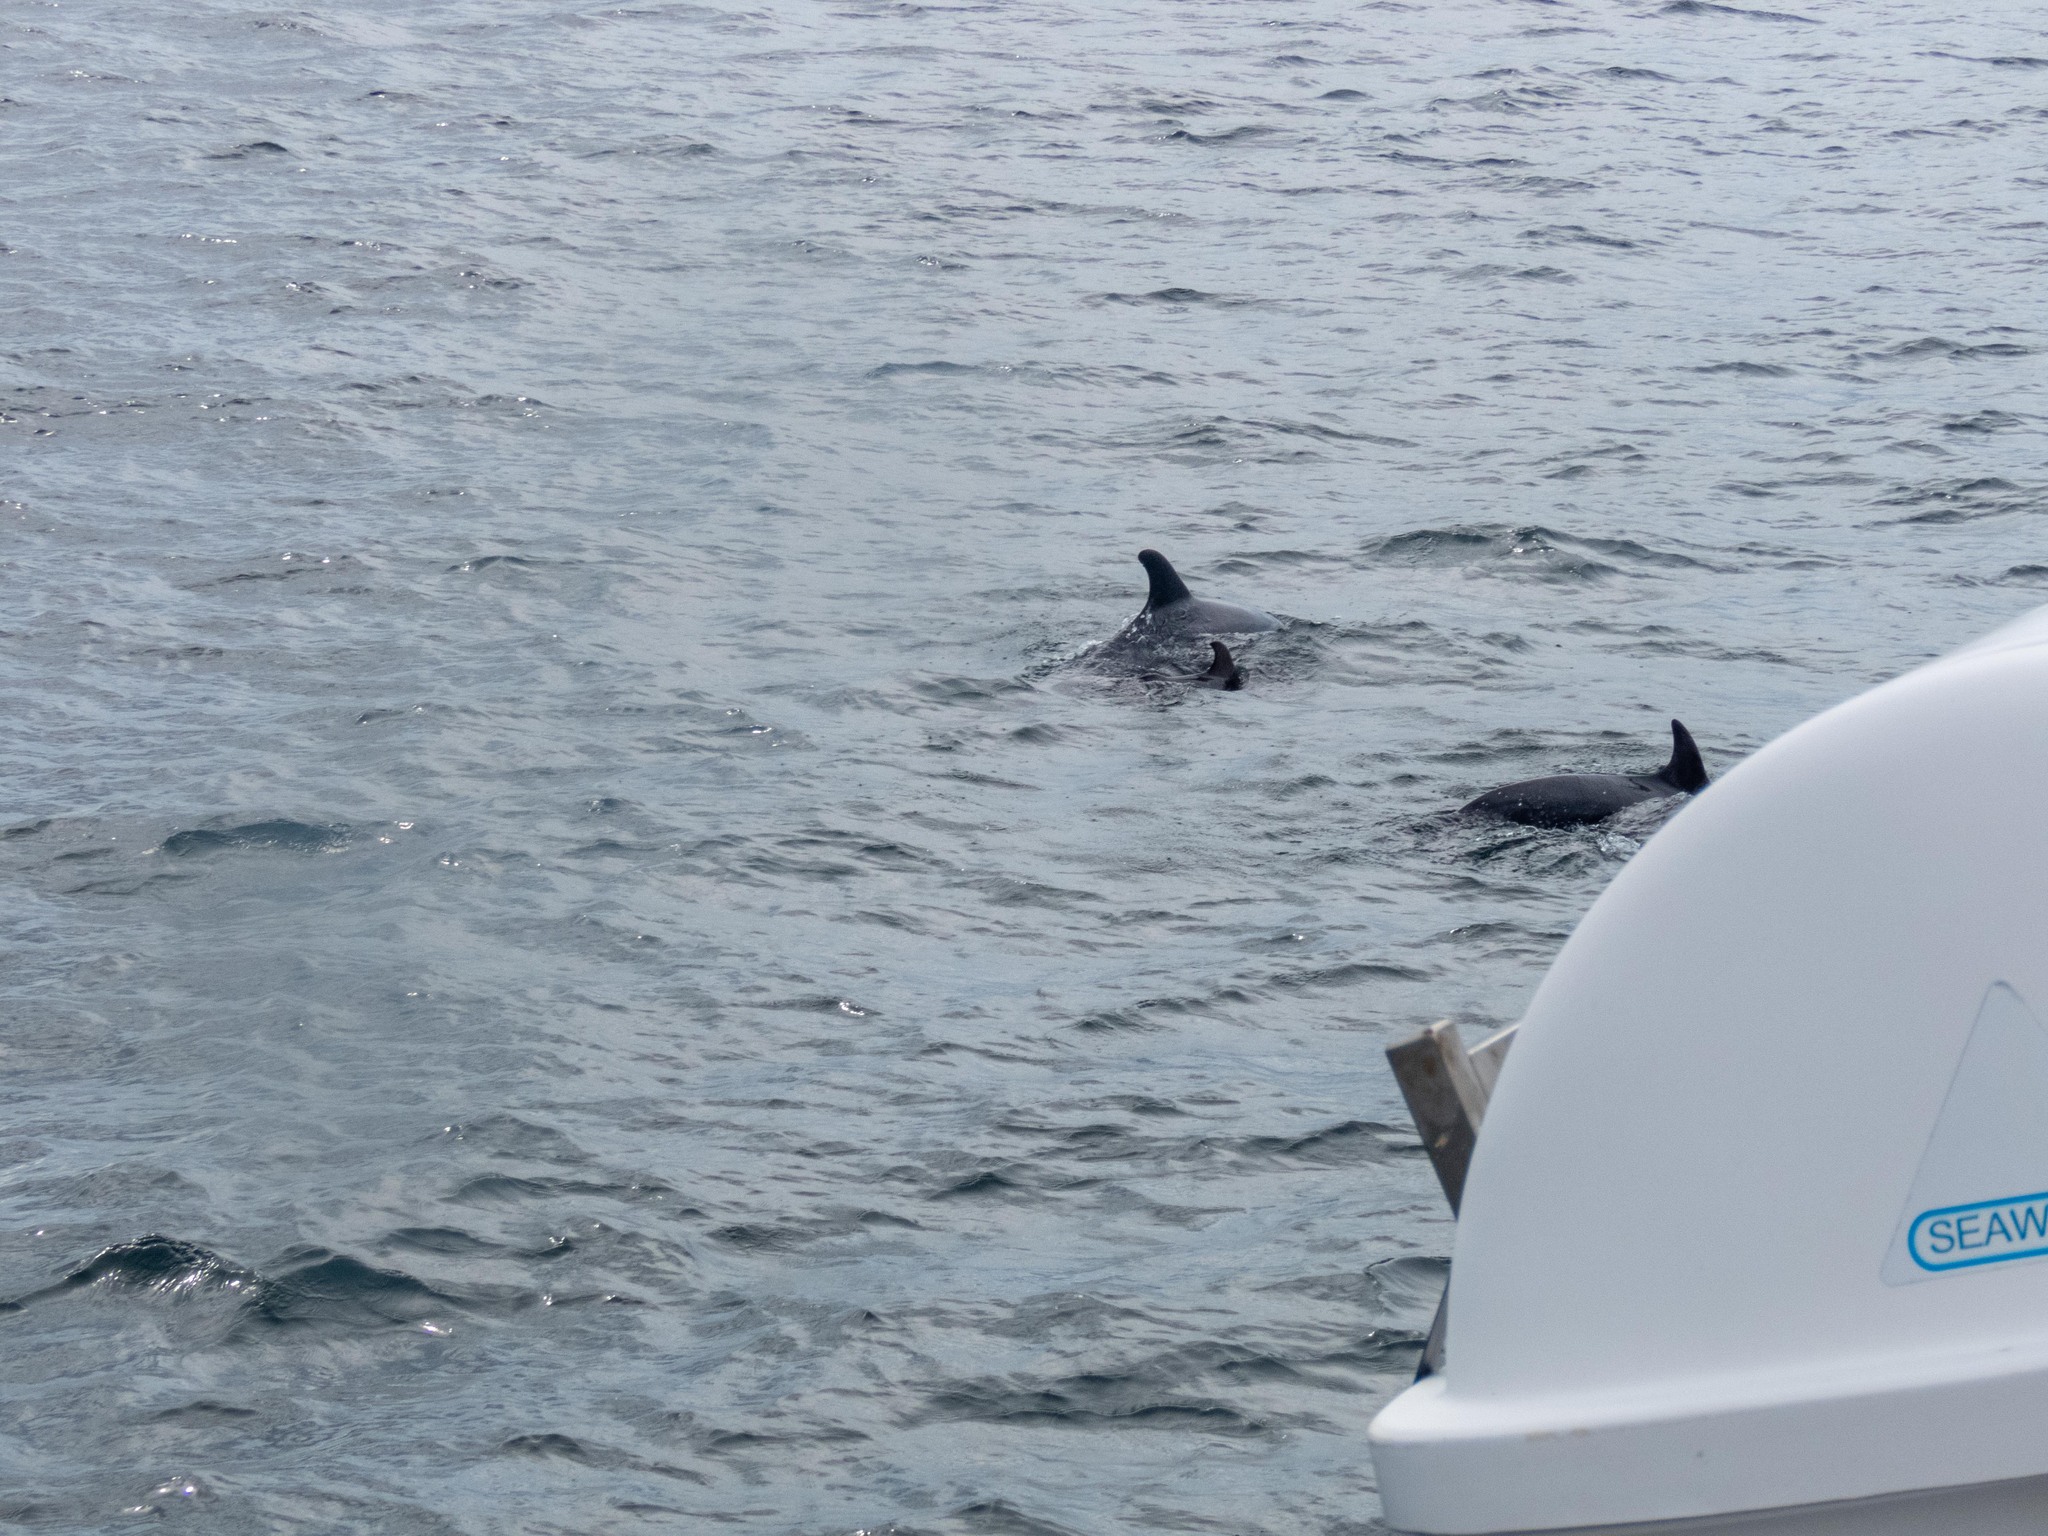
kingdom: Animalia
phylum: Chordata
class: Mammalia
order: Cetacea
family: Delphinidae
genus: Tursiops
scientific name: Tursiops truncatus
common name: Bottlenose dolphin
